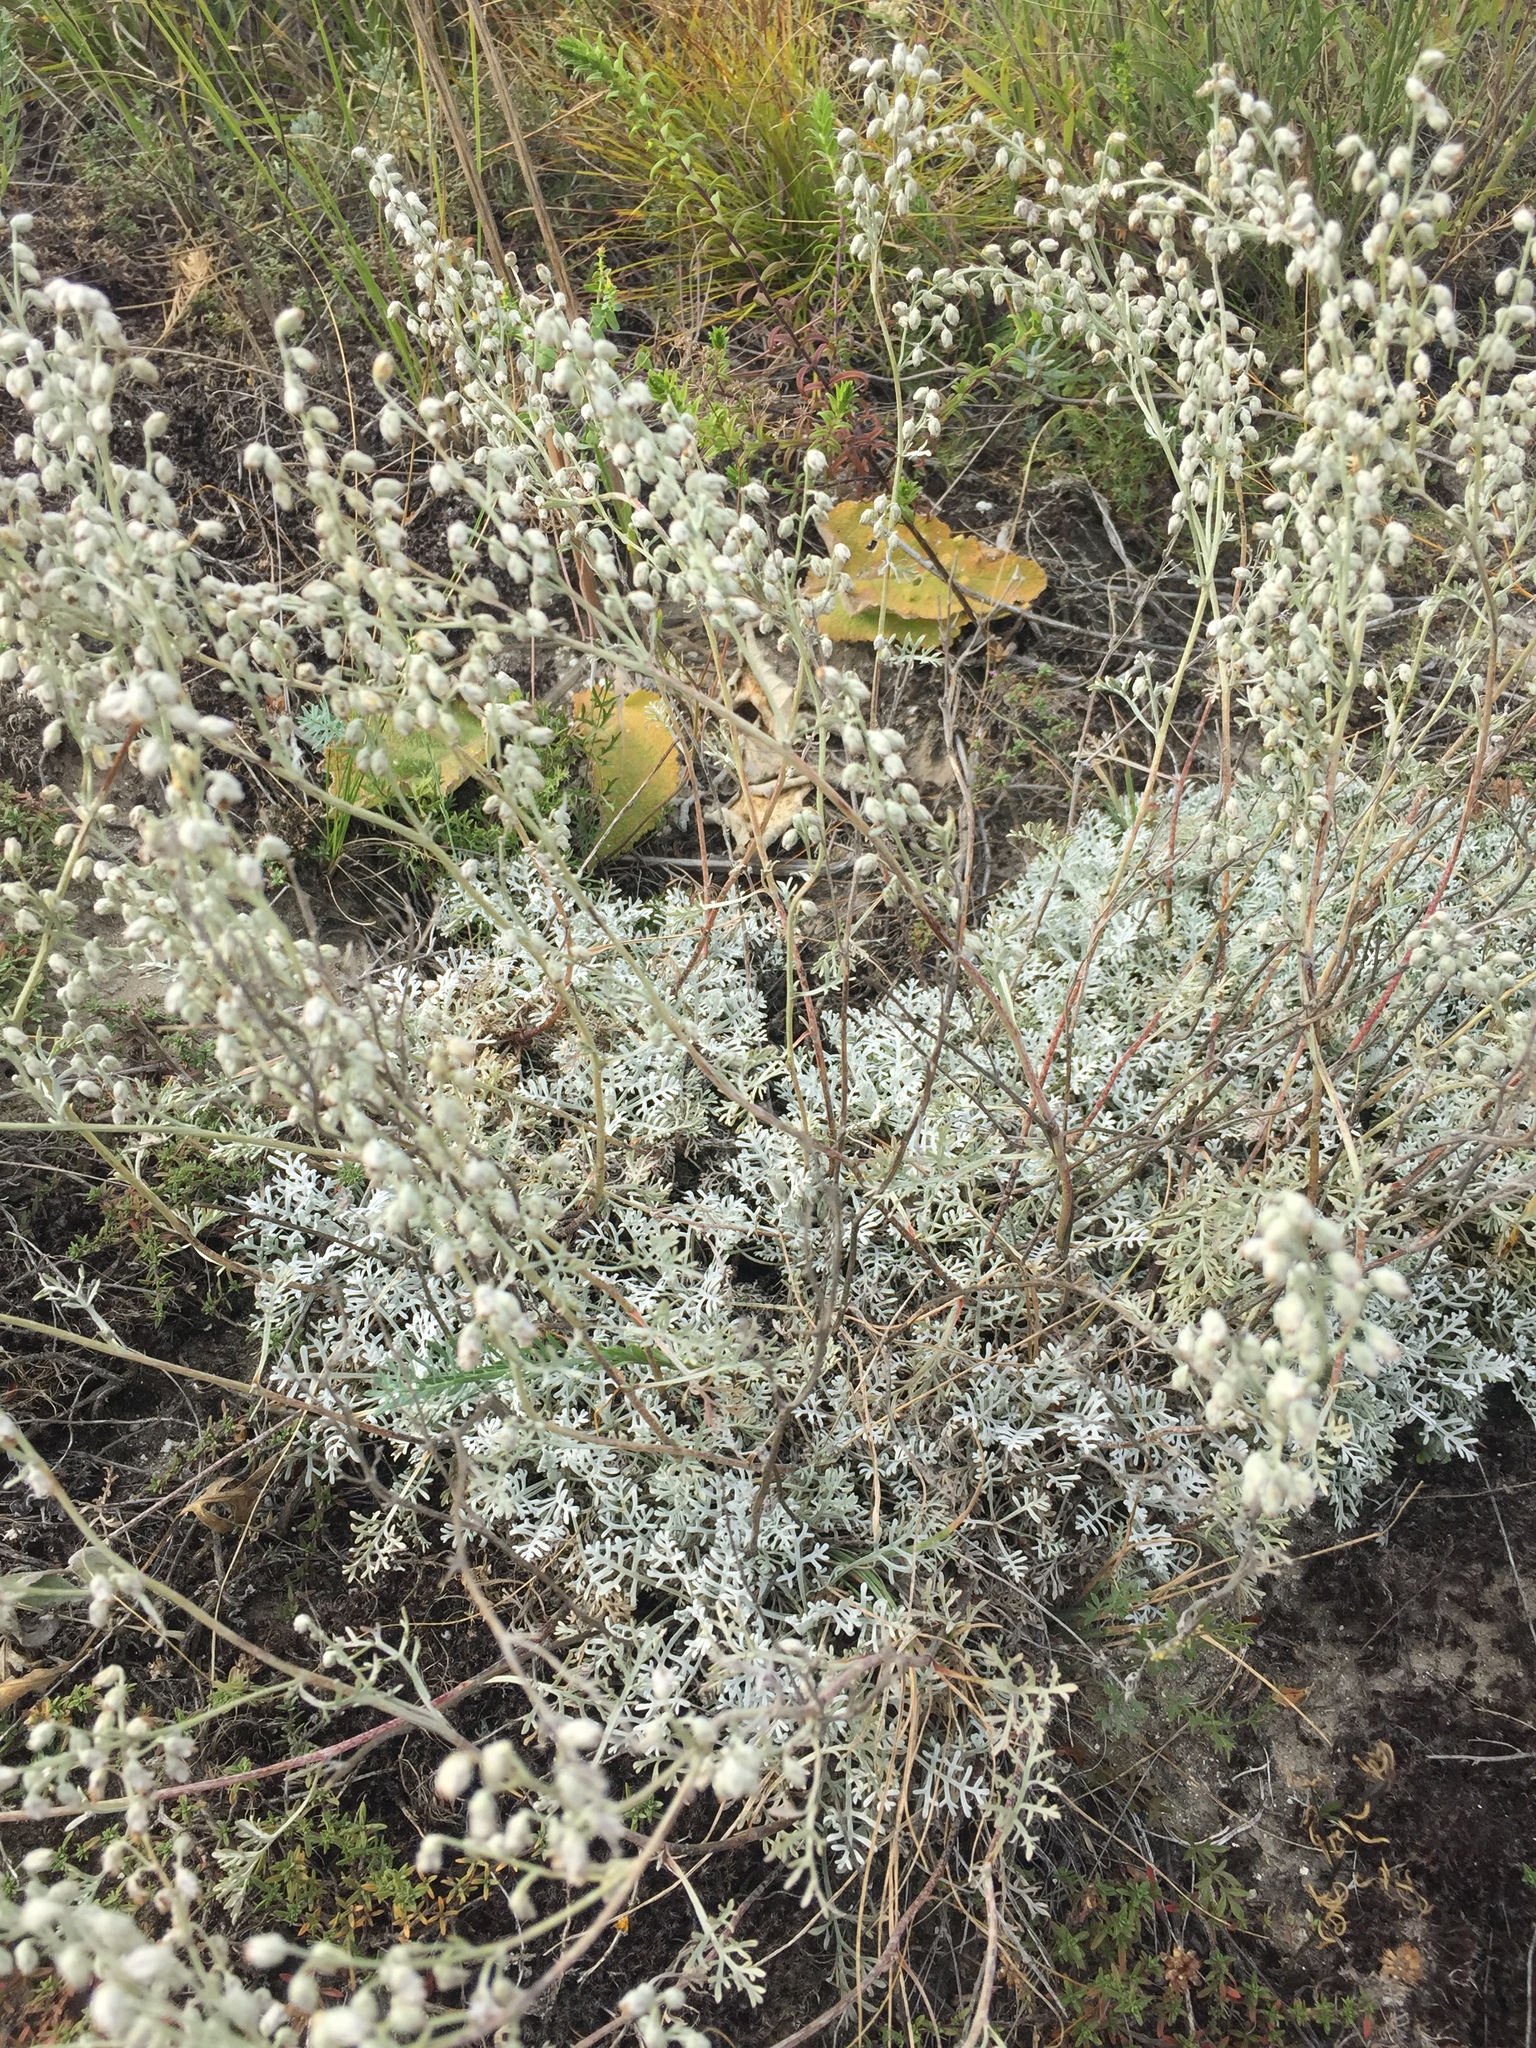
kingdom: Plantae
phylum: Tracheophyta
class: Magnoliopsida
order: Asterales
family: Asteraceae
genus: Artemisia
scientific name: Artemisia hololeuca
